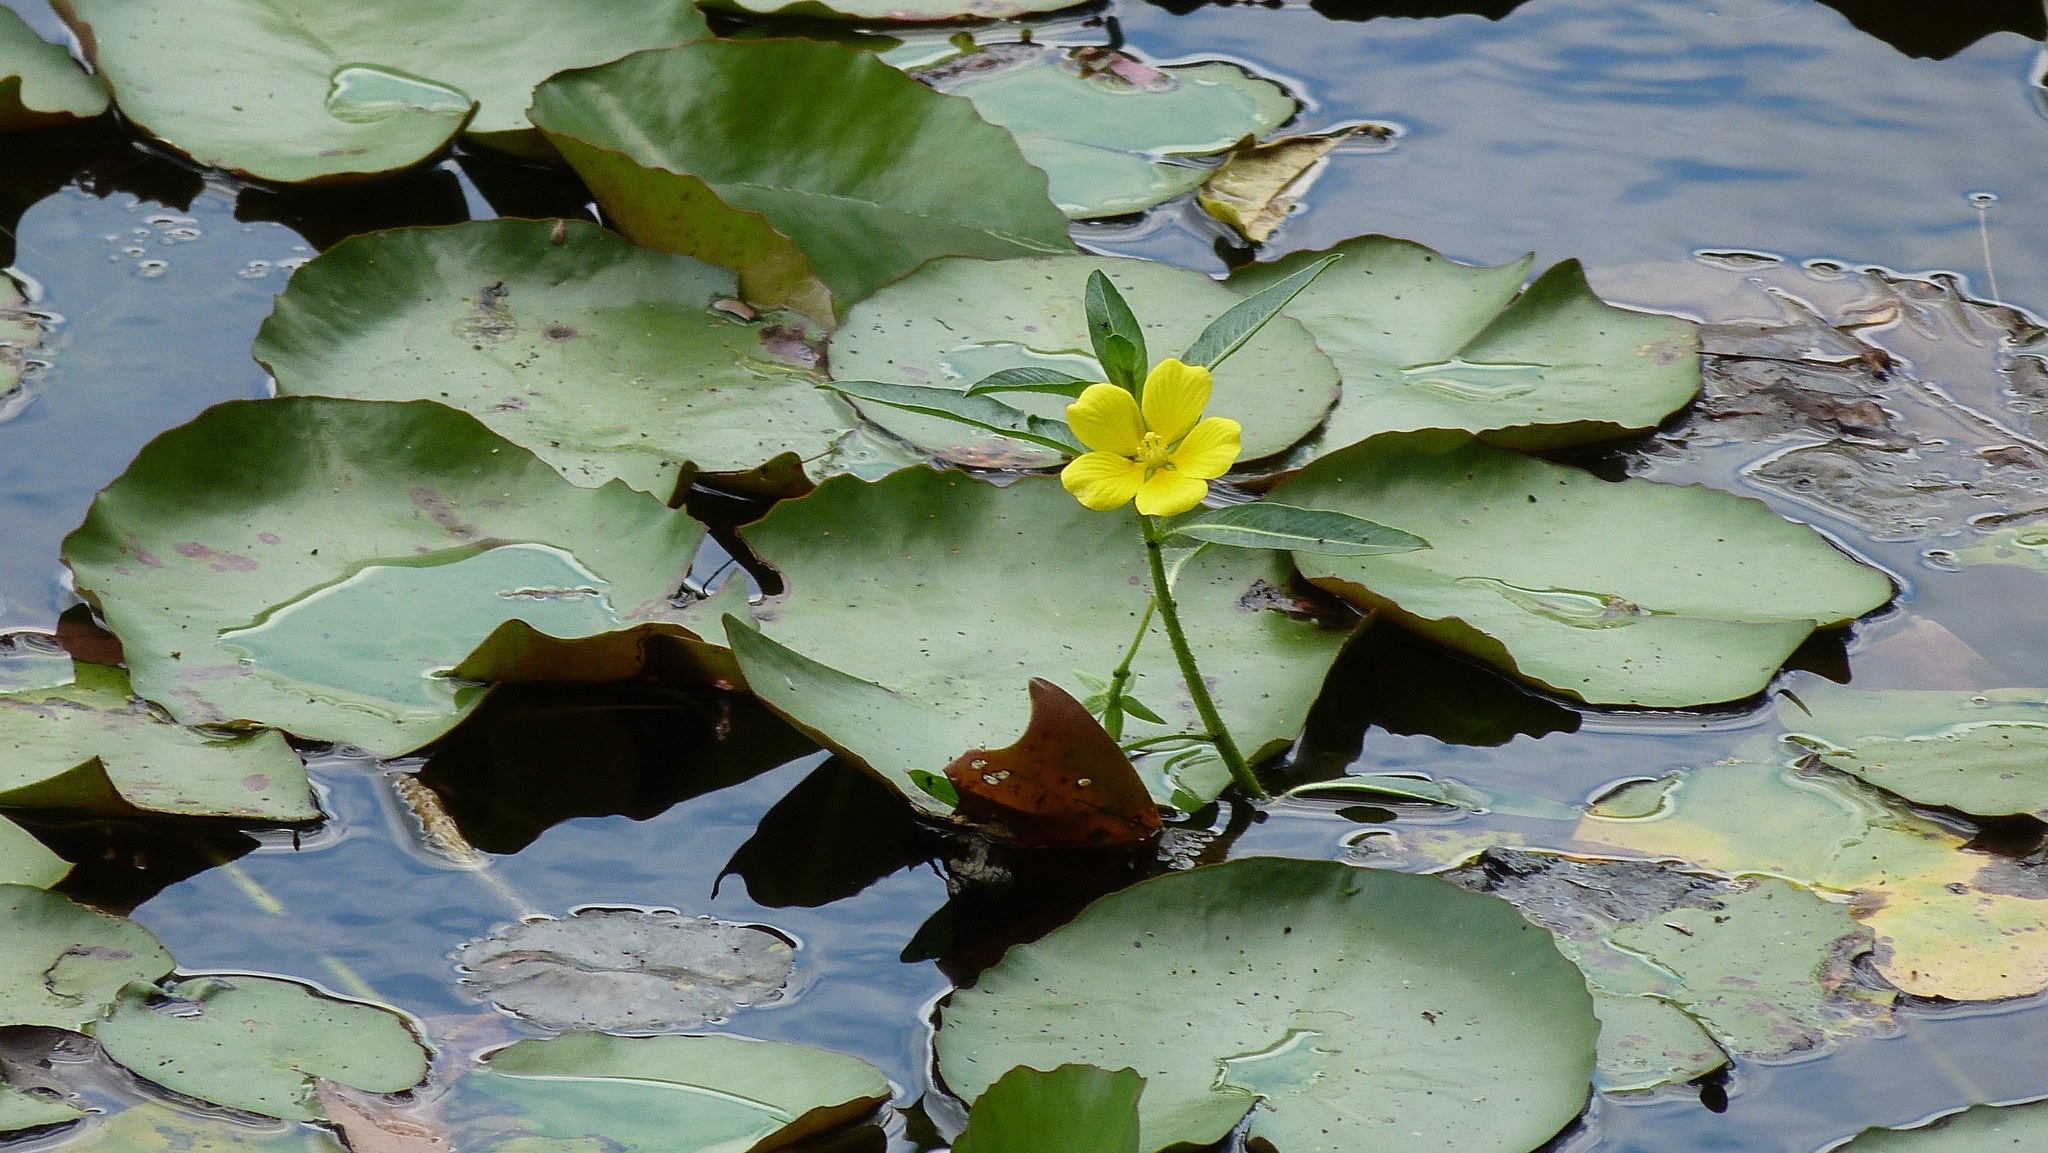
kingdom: Plantae
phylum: Tracheophyta
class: Magnoliopsida
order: Myrtales
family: Onagraceae
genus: Ludwigia
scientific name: Ludwigia peploides
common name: Floating primrose-willow
